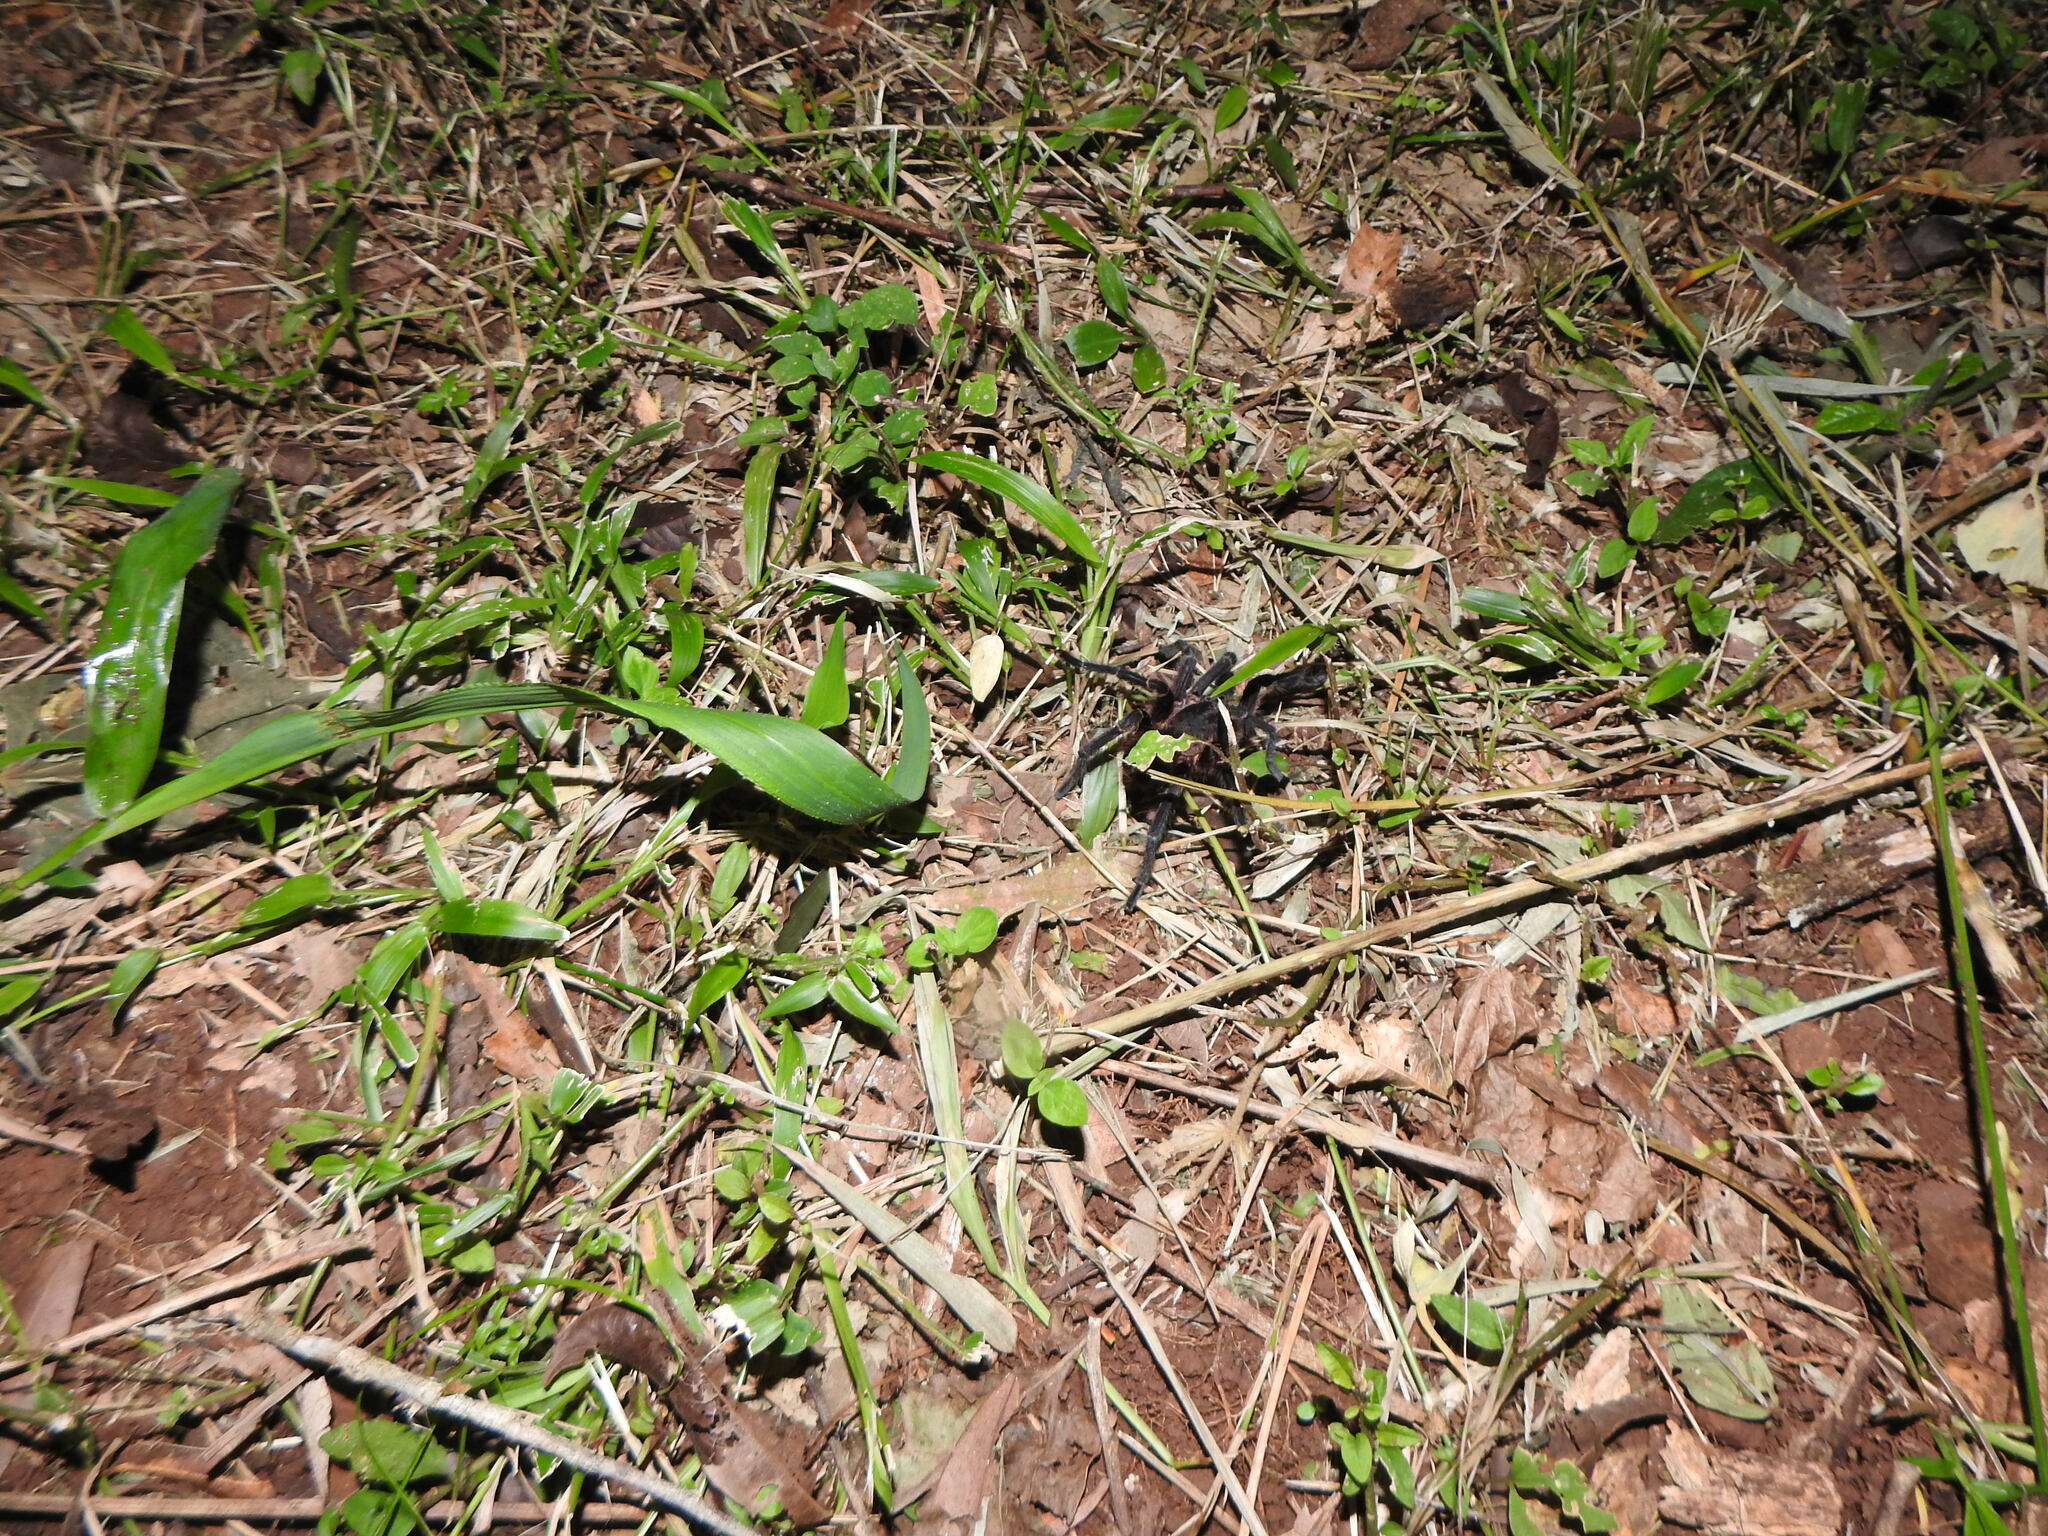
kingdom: Animalia
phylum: Arthropoda
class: Arachnida
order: Araneae
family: Theraphosidae
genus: Pterinopelma
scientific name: Pterinopelma longisternale
